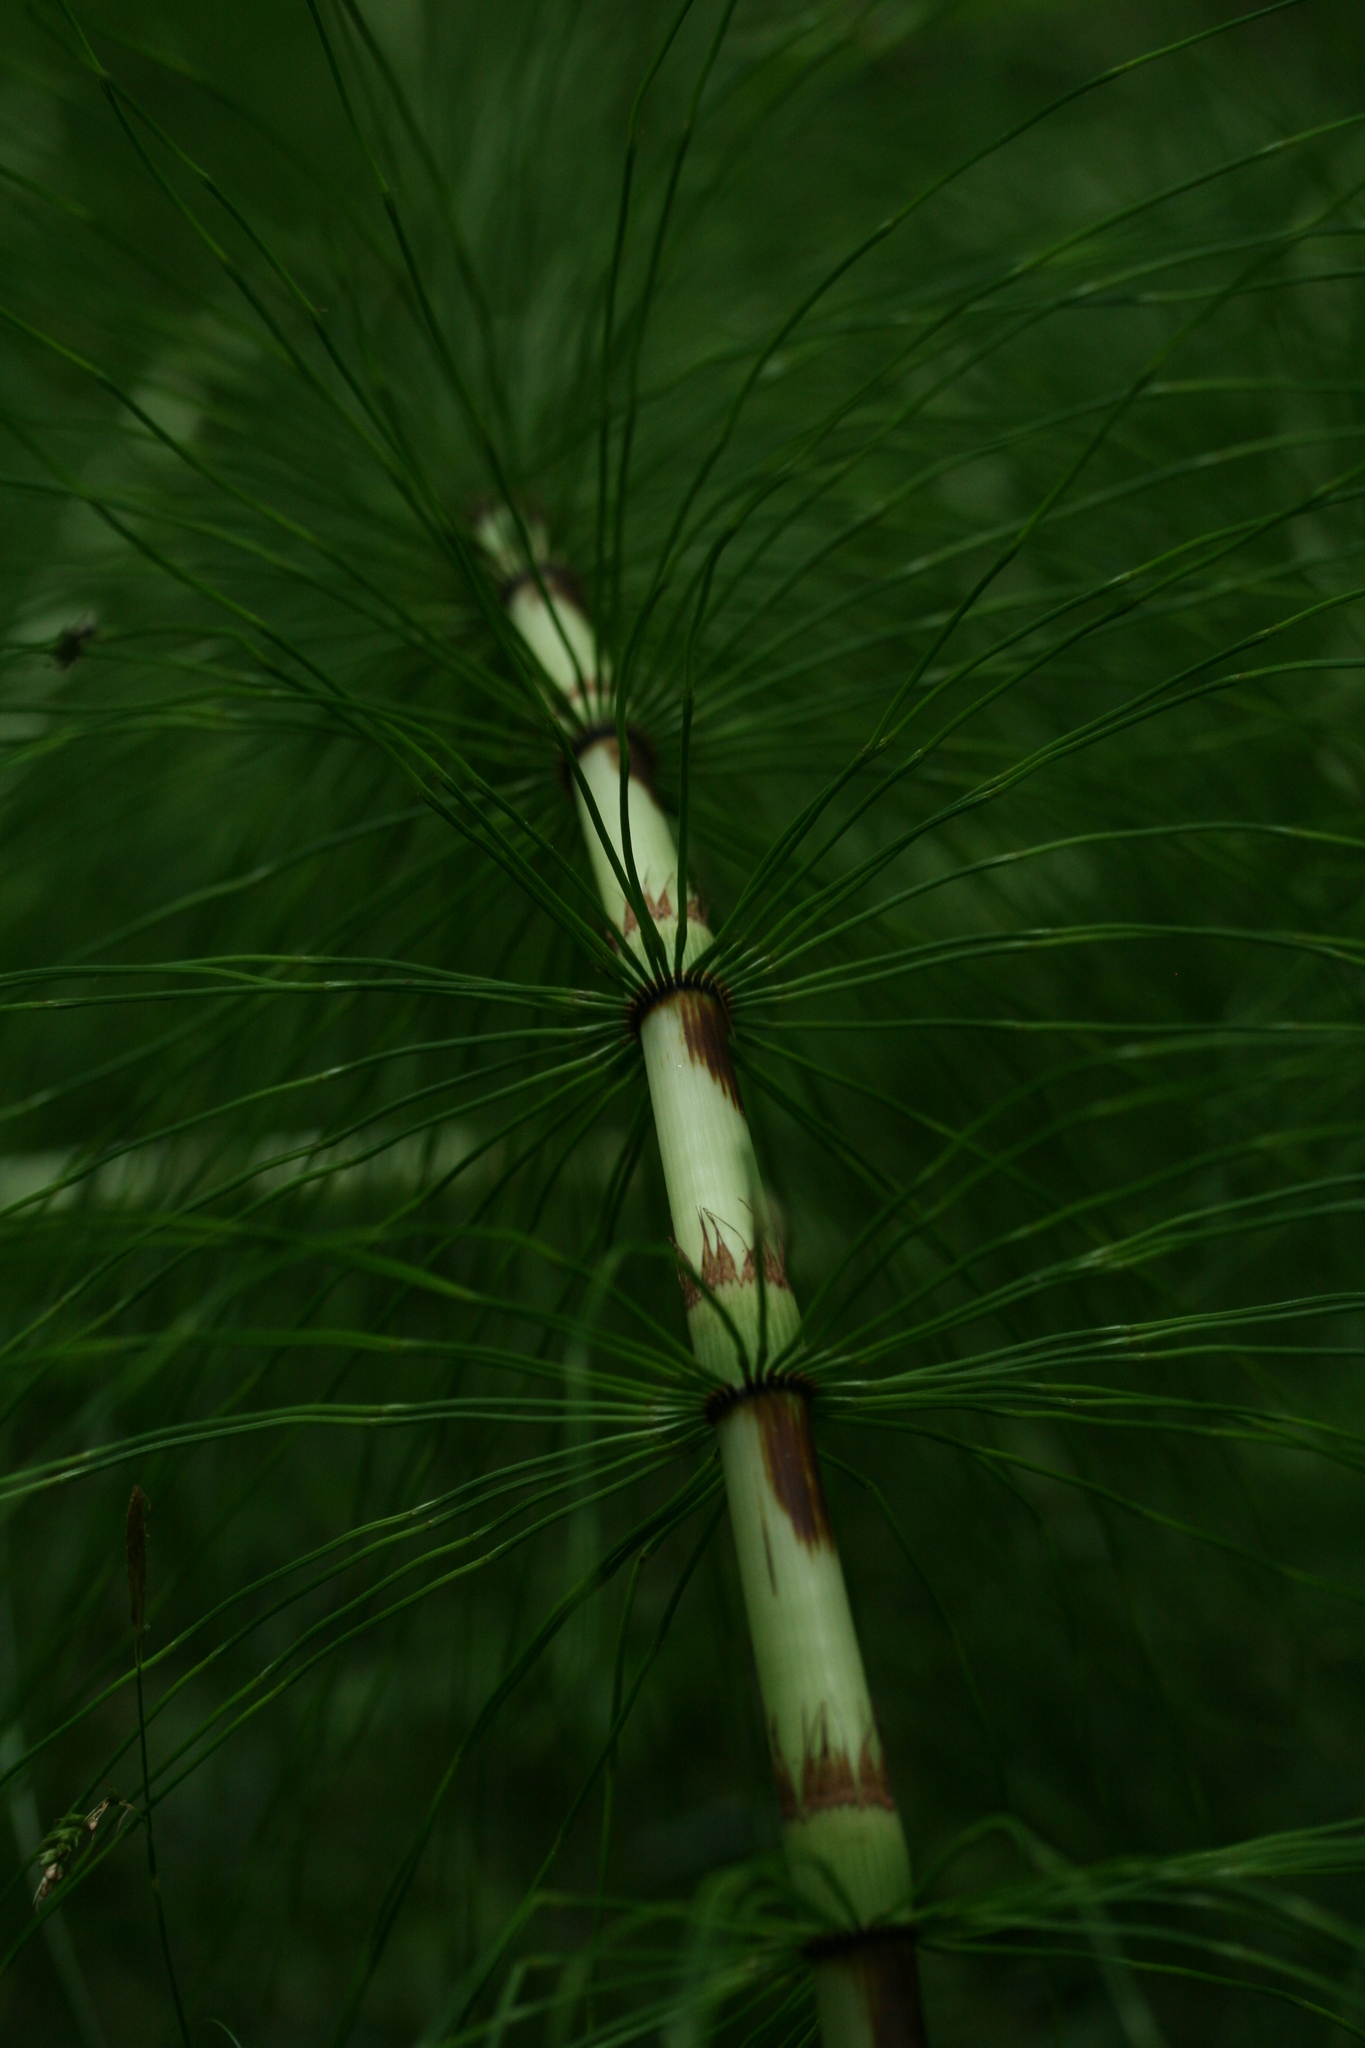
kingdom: Plantae
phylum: Tracheophyta
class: Polypodiopsida
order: Equisetales
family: Equisetaceae
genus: Equisetum
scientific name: Equisetum telmateia
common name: Great horsetail
